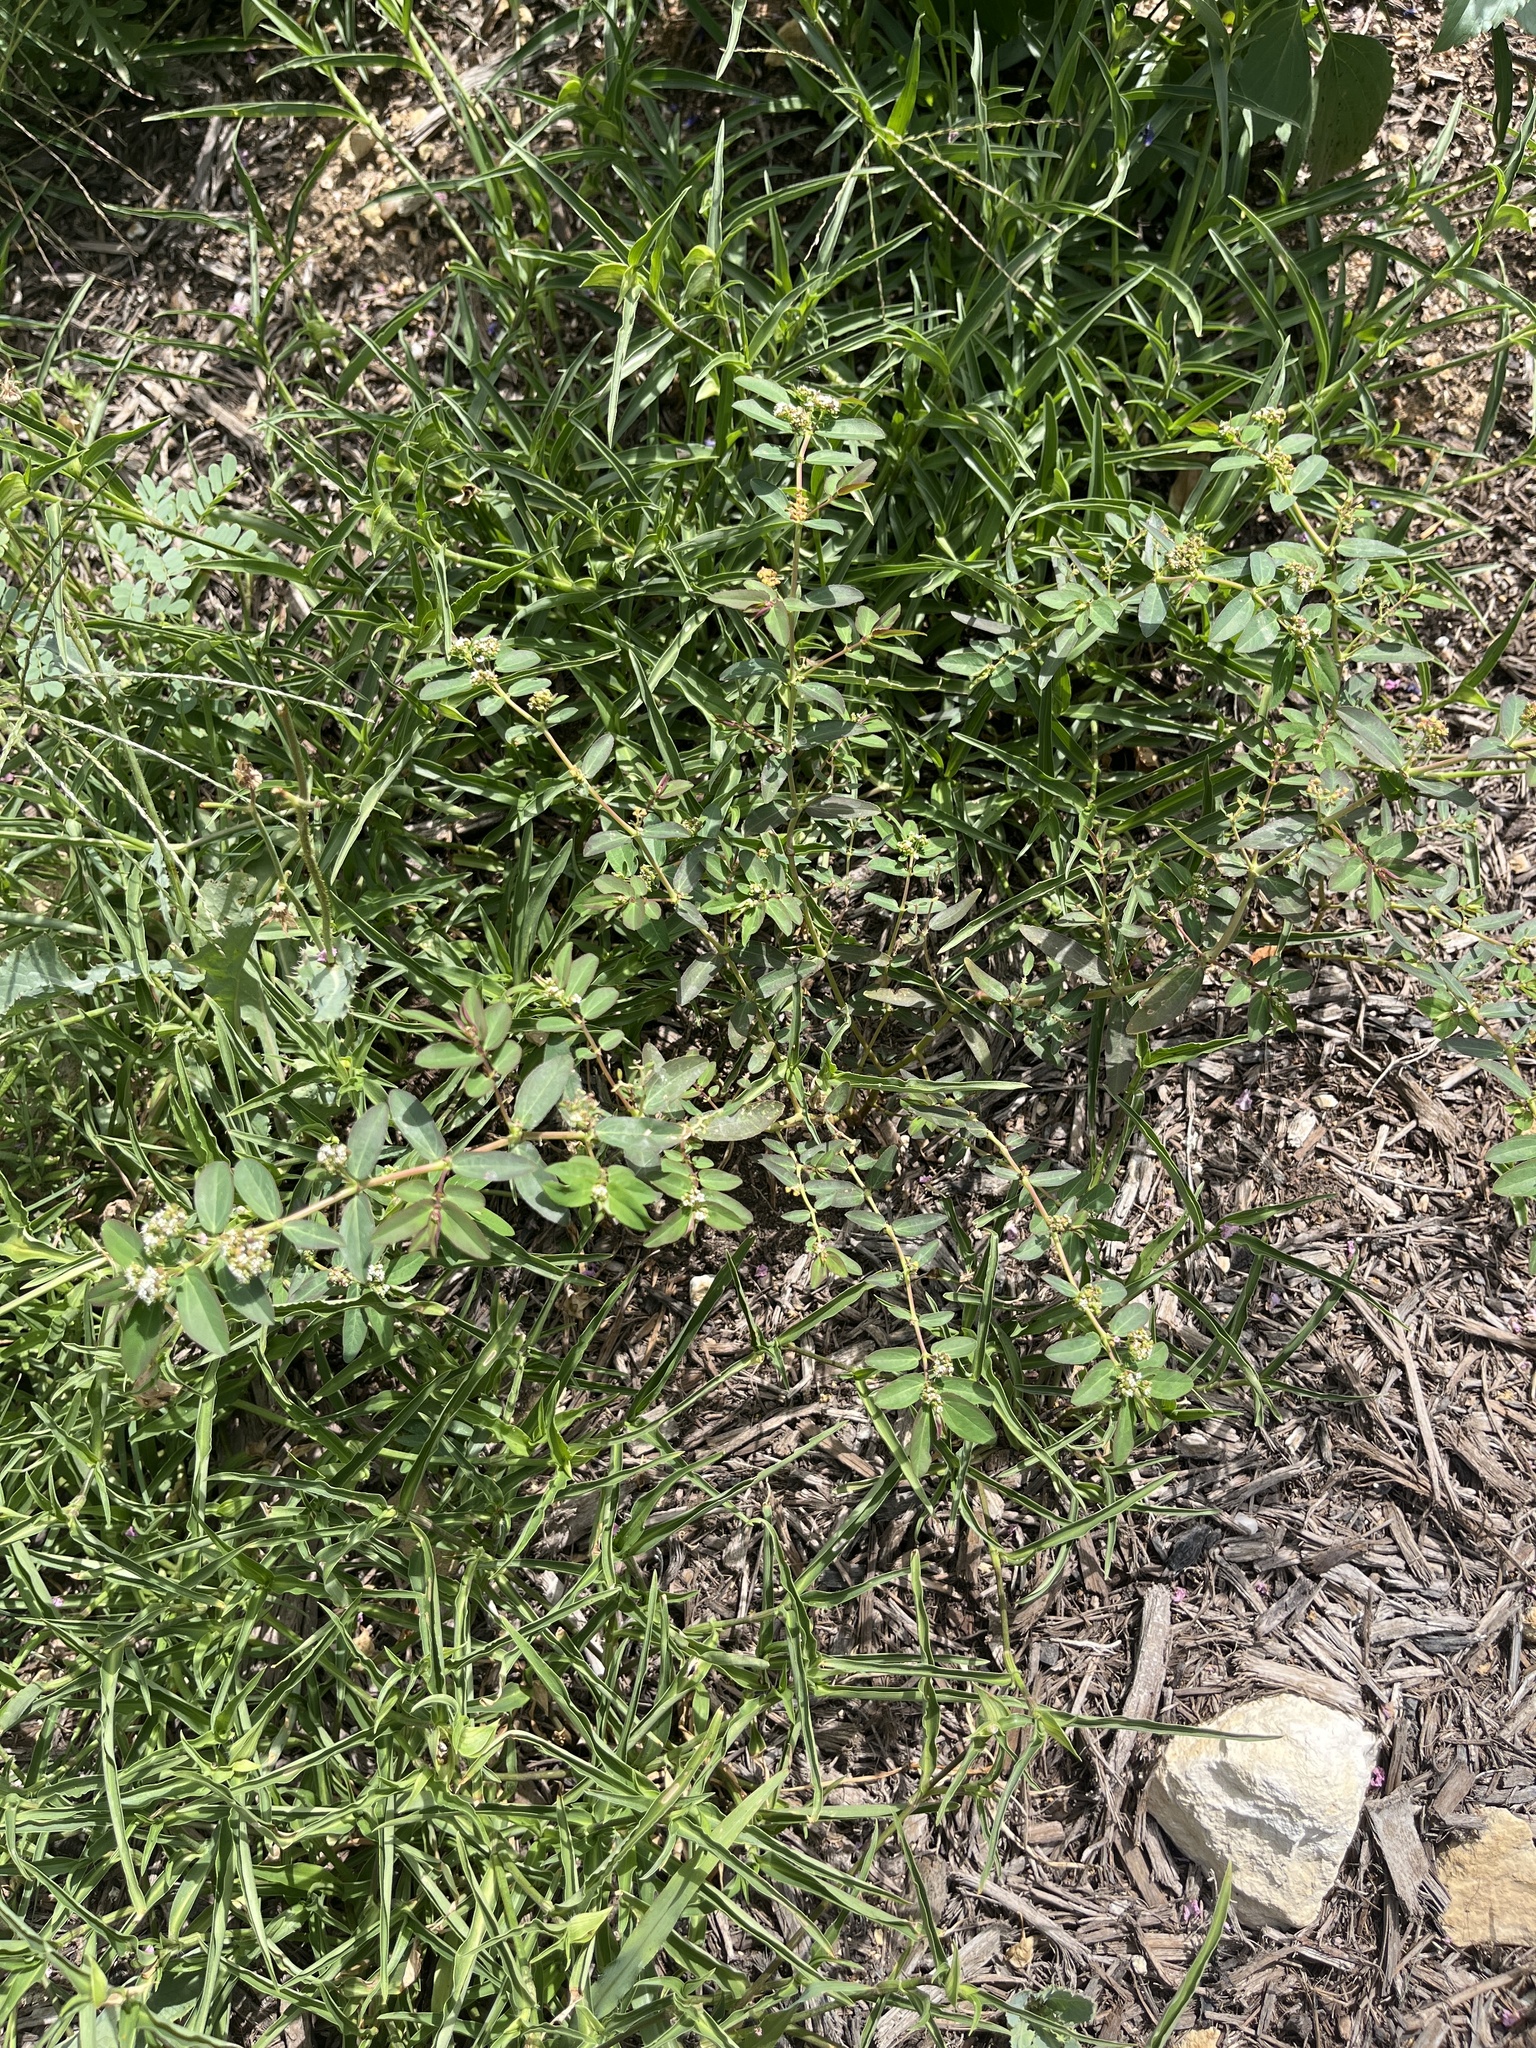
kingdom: Plantae
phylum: Tracheophyta
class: Magnoliopsida
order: Malpighiales
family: Euphorbiaceae
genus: Euphorbia
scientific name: Euphorbia hypericifolia
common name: Graceful sandmat
